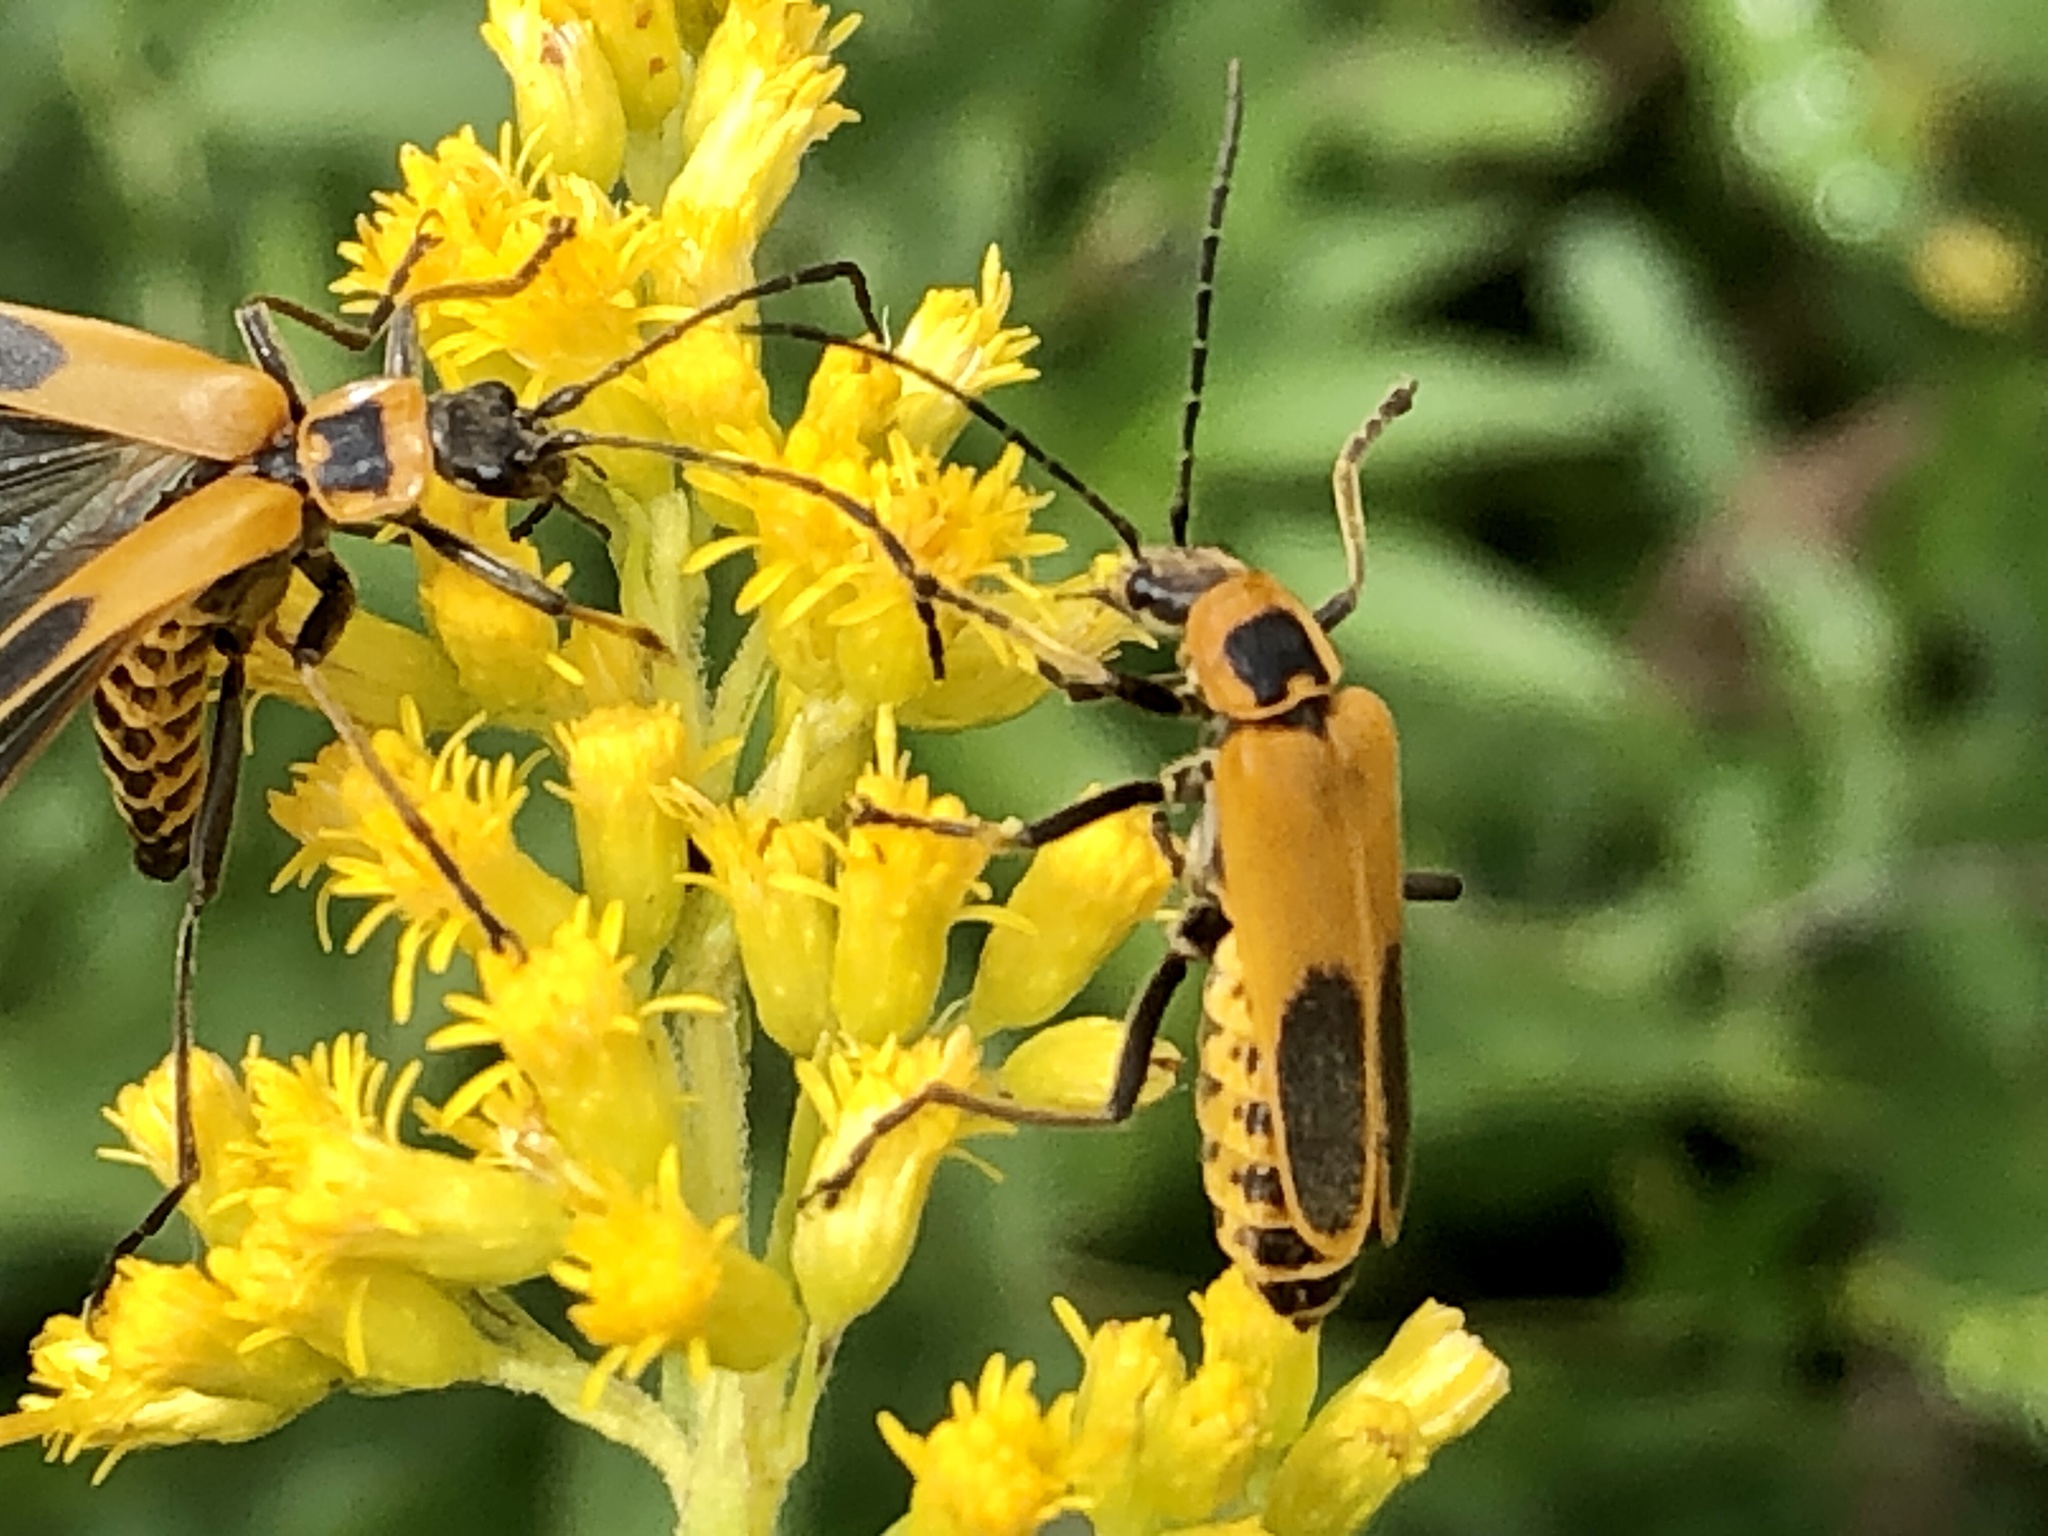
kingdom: Animalia
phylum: Arthropoda
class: Insecta
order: Coleoptera
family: Cantharidae
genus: Chauliognathus
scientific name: Chauliognathus pensylvanicus
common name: Goldenrod soldier beetle
